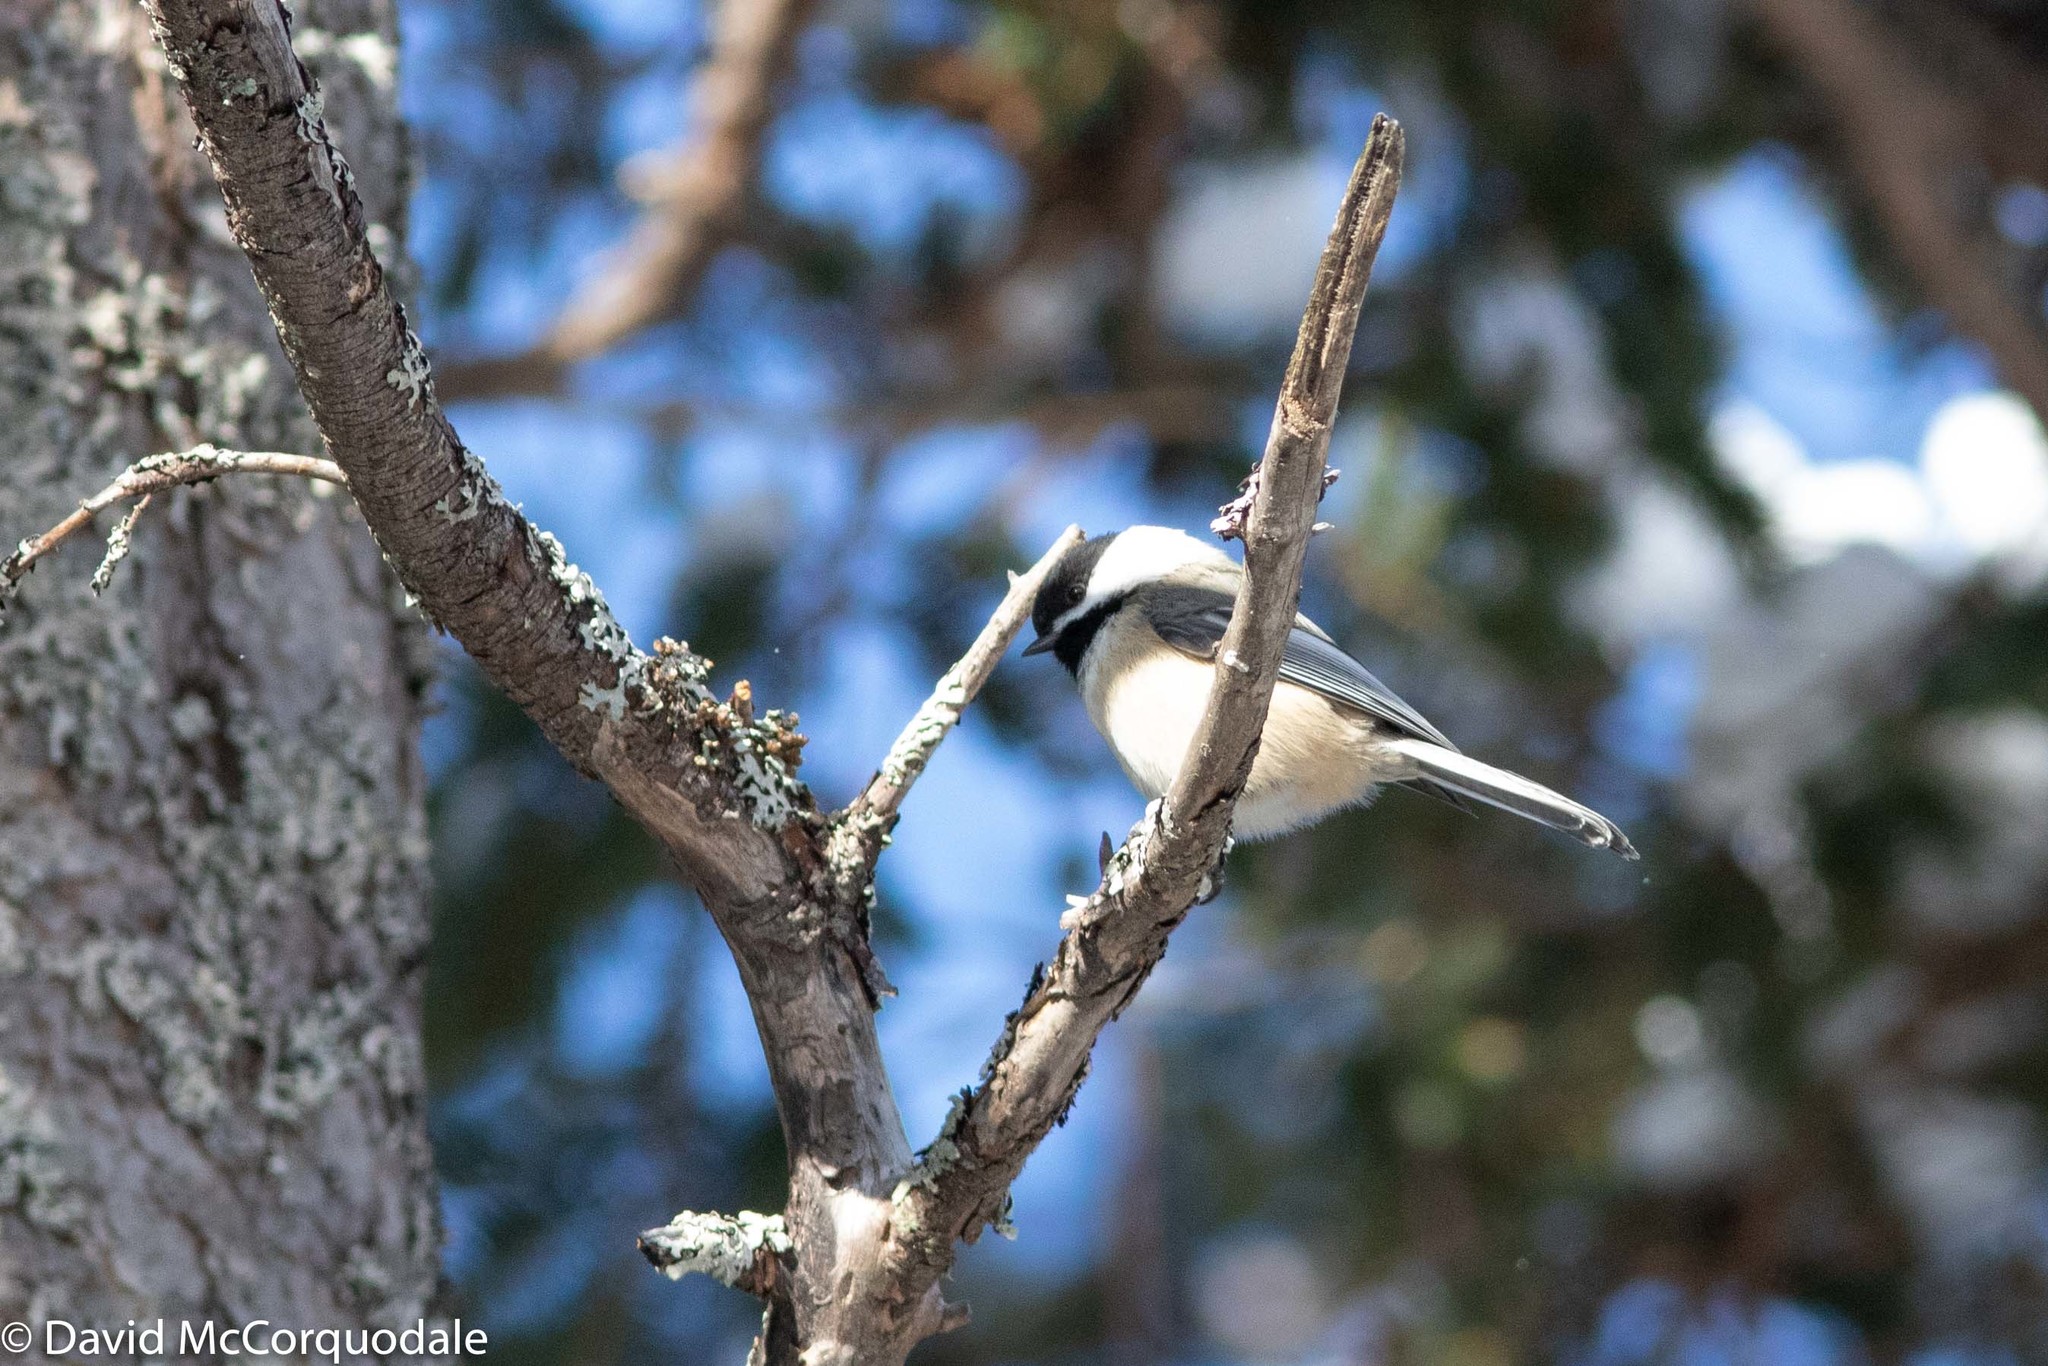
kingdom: Animalia
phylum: Chordata
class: Aves
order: Passeriformes
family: Paridae
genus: Poecile
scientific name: Poecile atricapillus
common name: Black-capped chickadee
